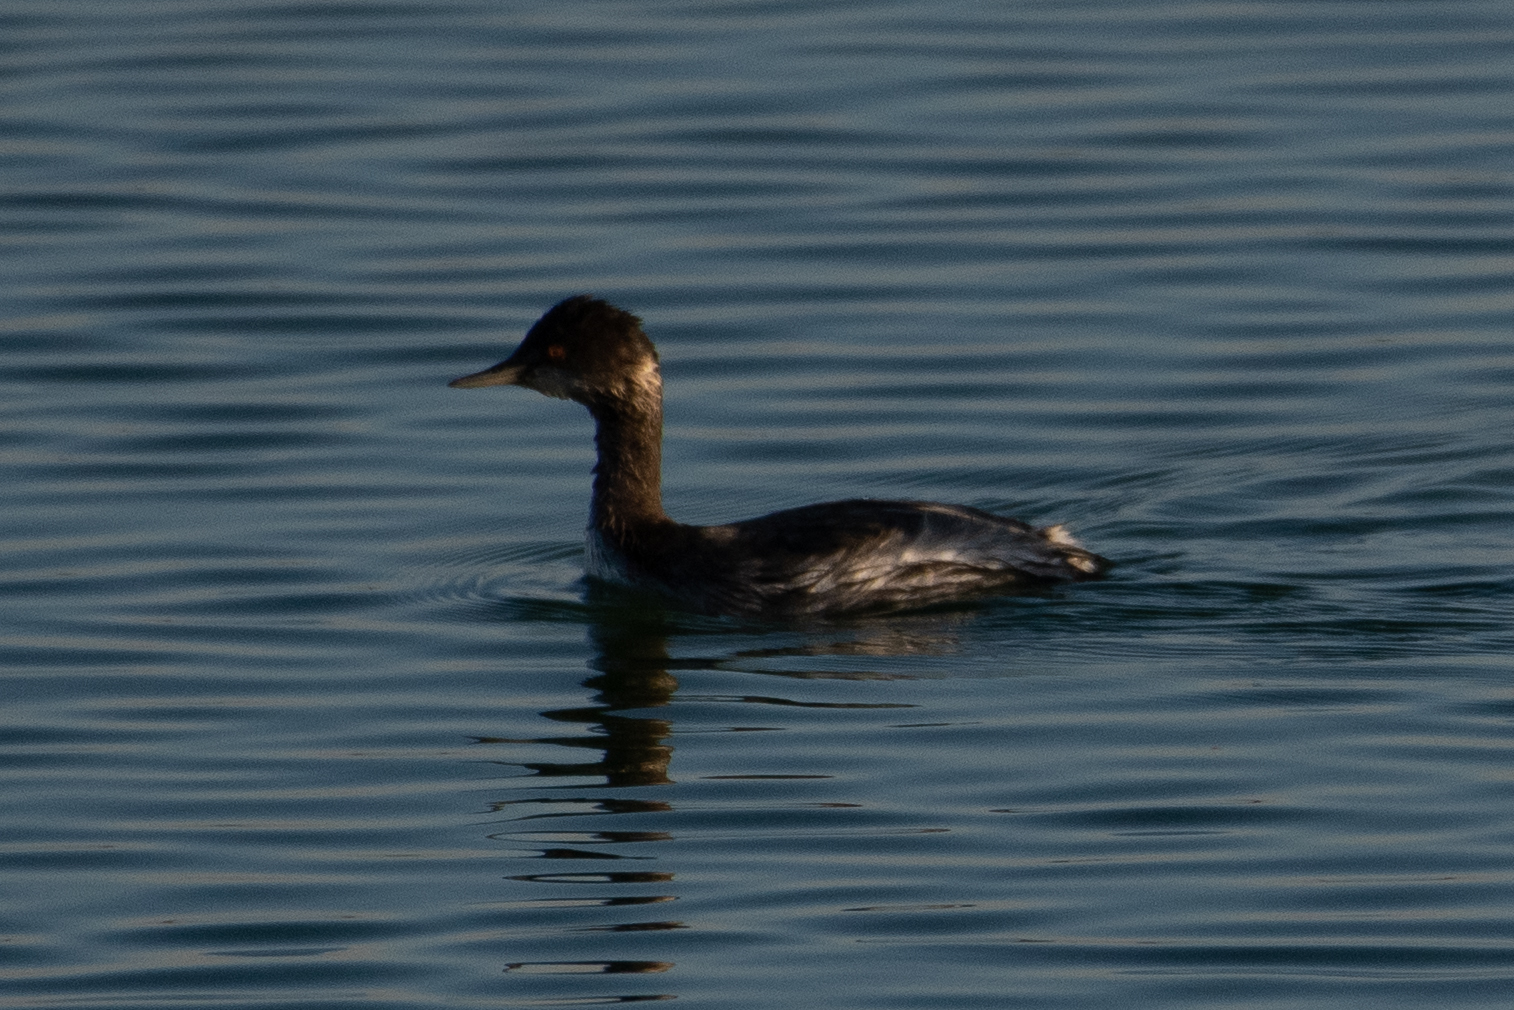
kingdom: Animalia
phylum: Chordata
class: Aves
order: Podicipediformes
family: Podicipedidae
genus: Podiceps
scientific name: Podiceps nigricollis
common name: Black-necked grebe
